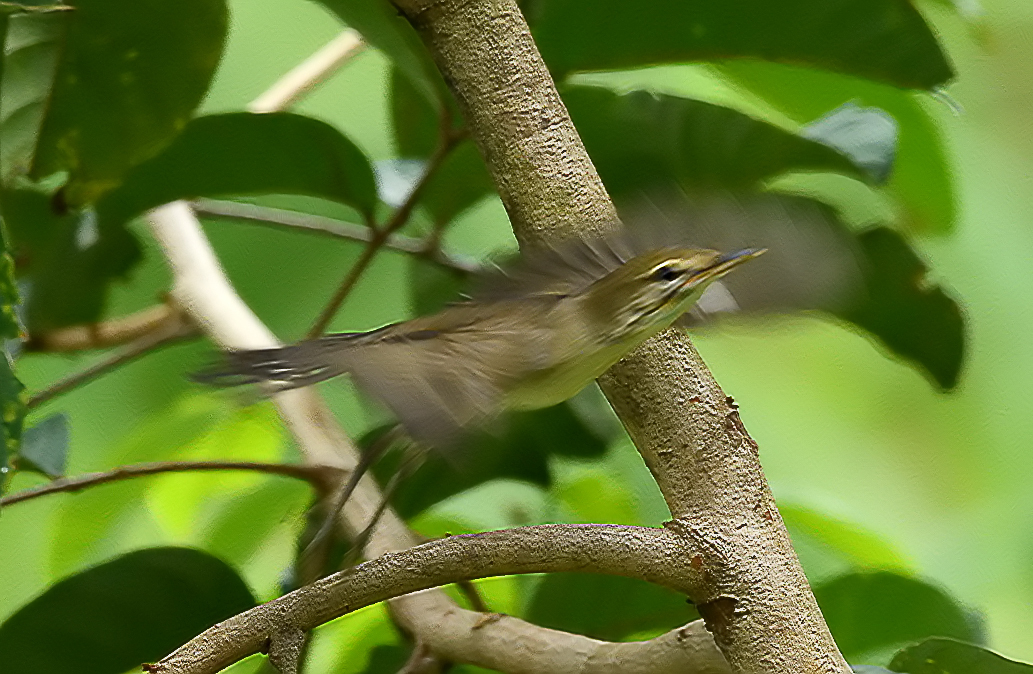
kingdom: Animalia
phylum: Chordata
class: Aves
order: Passeriformes
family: Phylloscopidae
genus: Phylloscopus
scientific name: Phylloscopus trochiloides
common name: Greenish warbler
